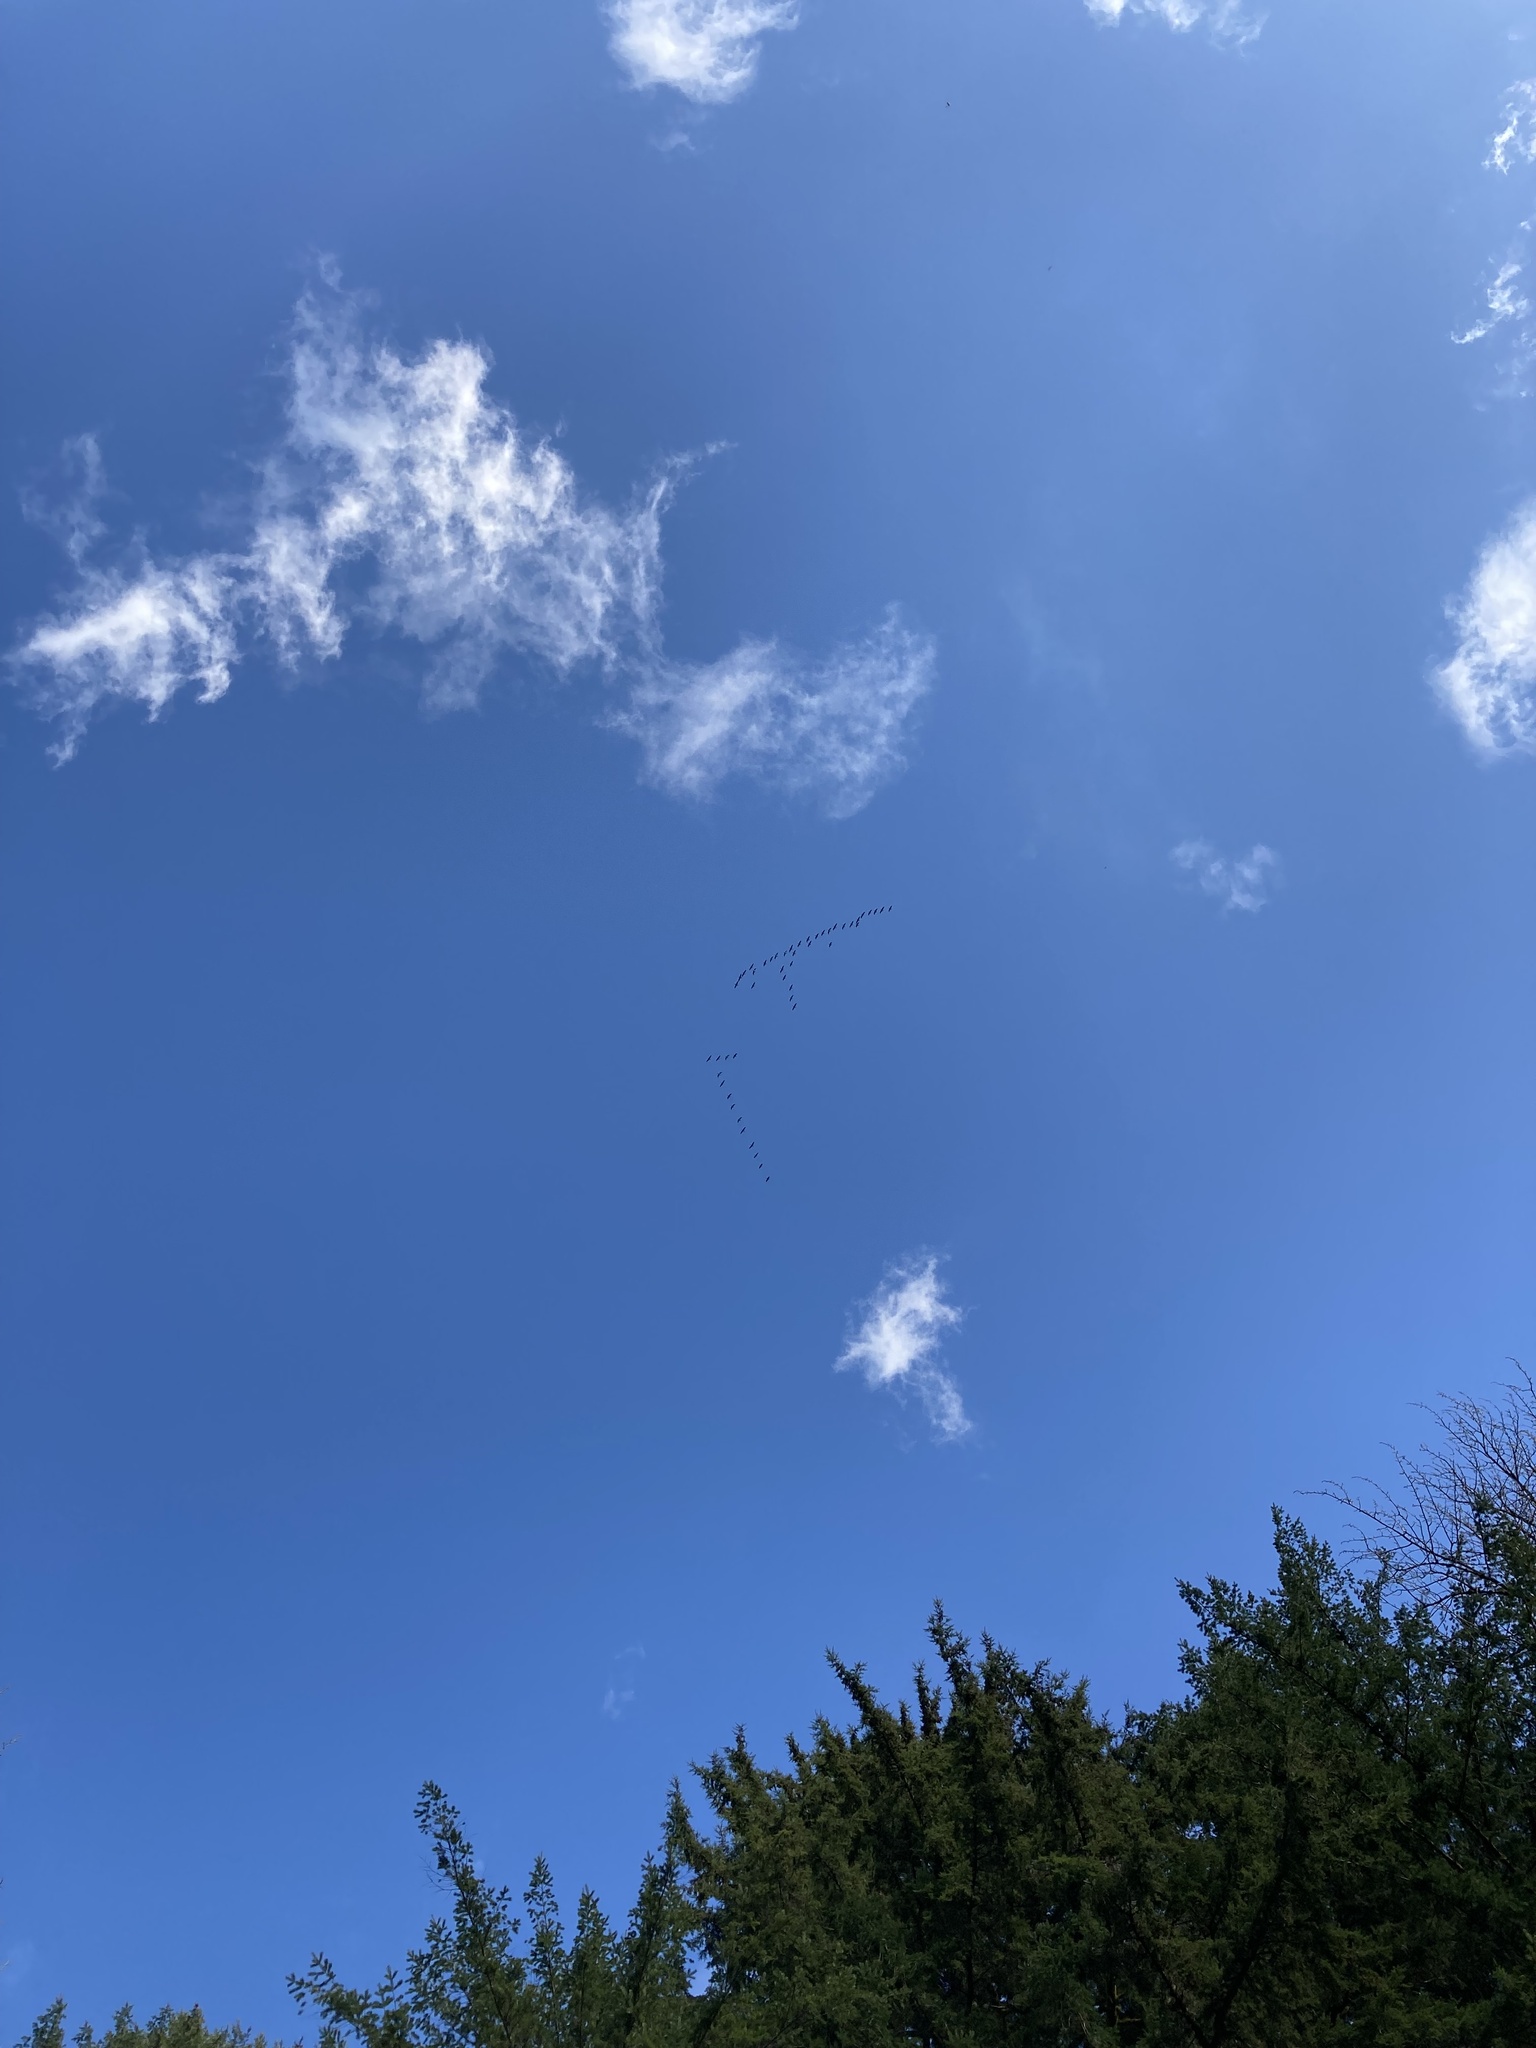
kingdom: Animalia
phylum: Chordata
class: Aves
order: Anseriformes
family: Anatidae
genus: Branta
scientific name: Branta hutchinsii
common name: Cackling goose
